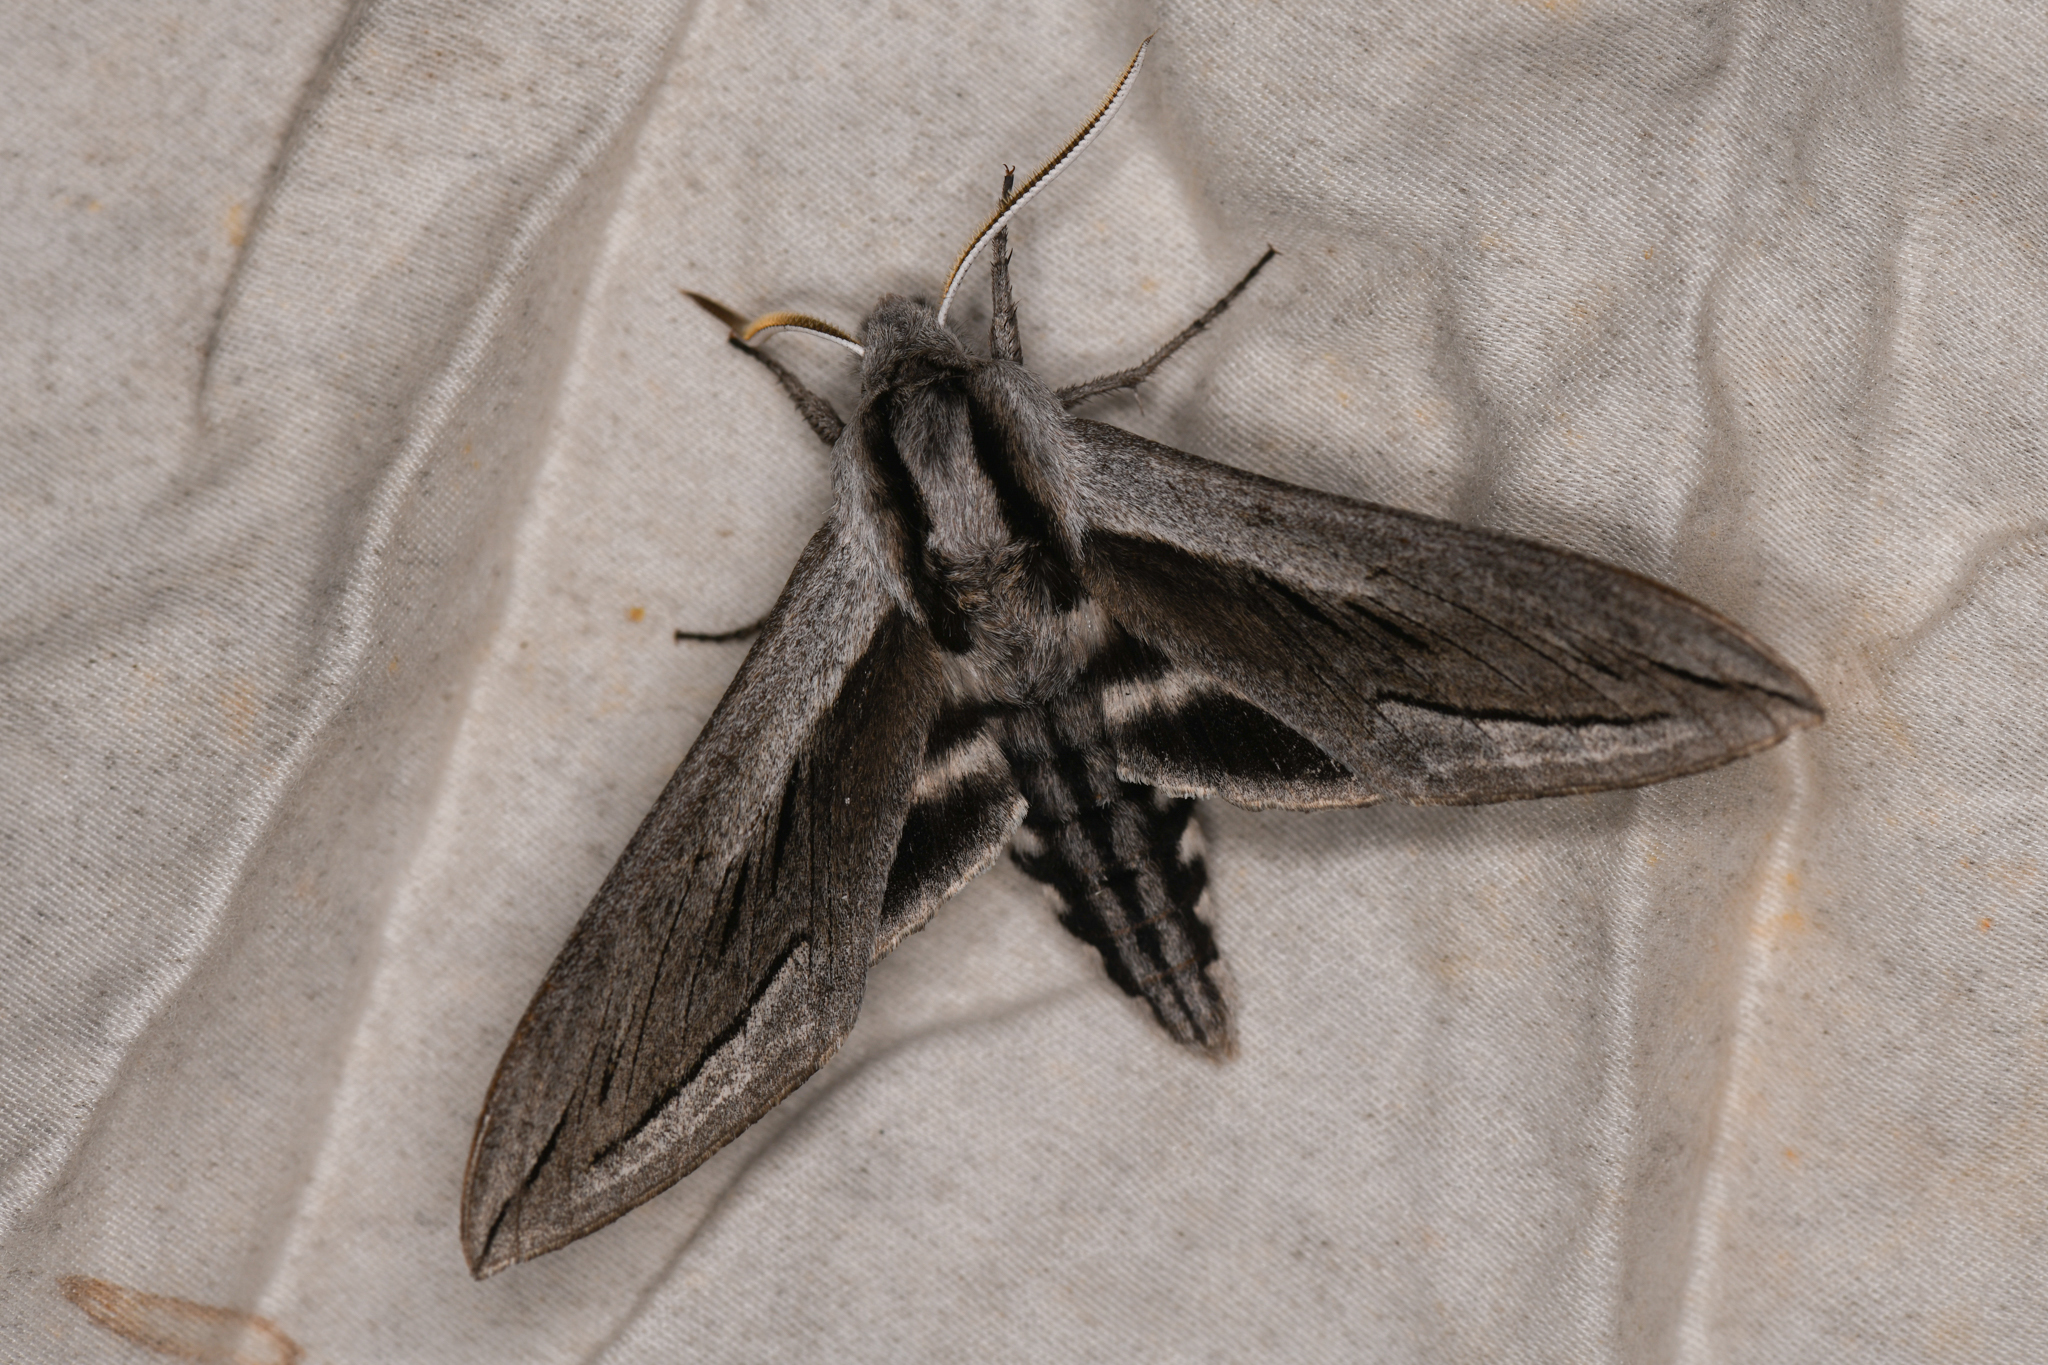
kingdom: Animalia
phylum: Arthropoda
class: Insecta
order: Lepidoptera
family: Sphingidae
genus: Sphinx
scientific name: Sphinx vashti
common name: Snowberry sphinx
